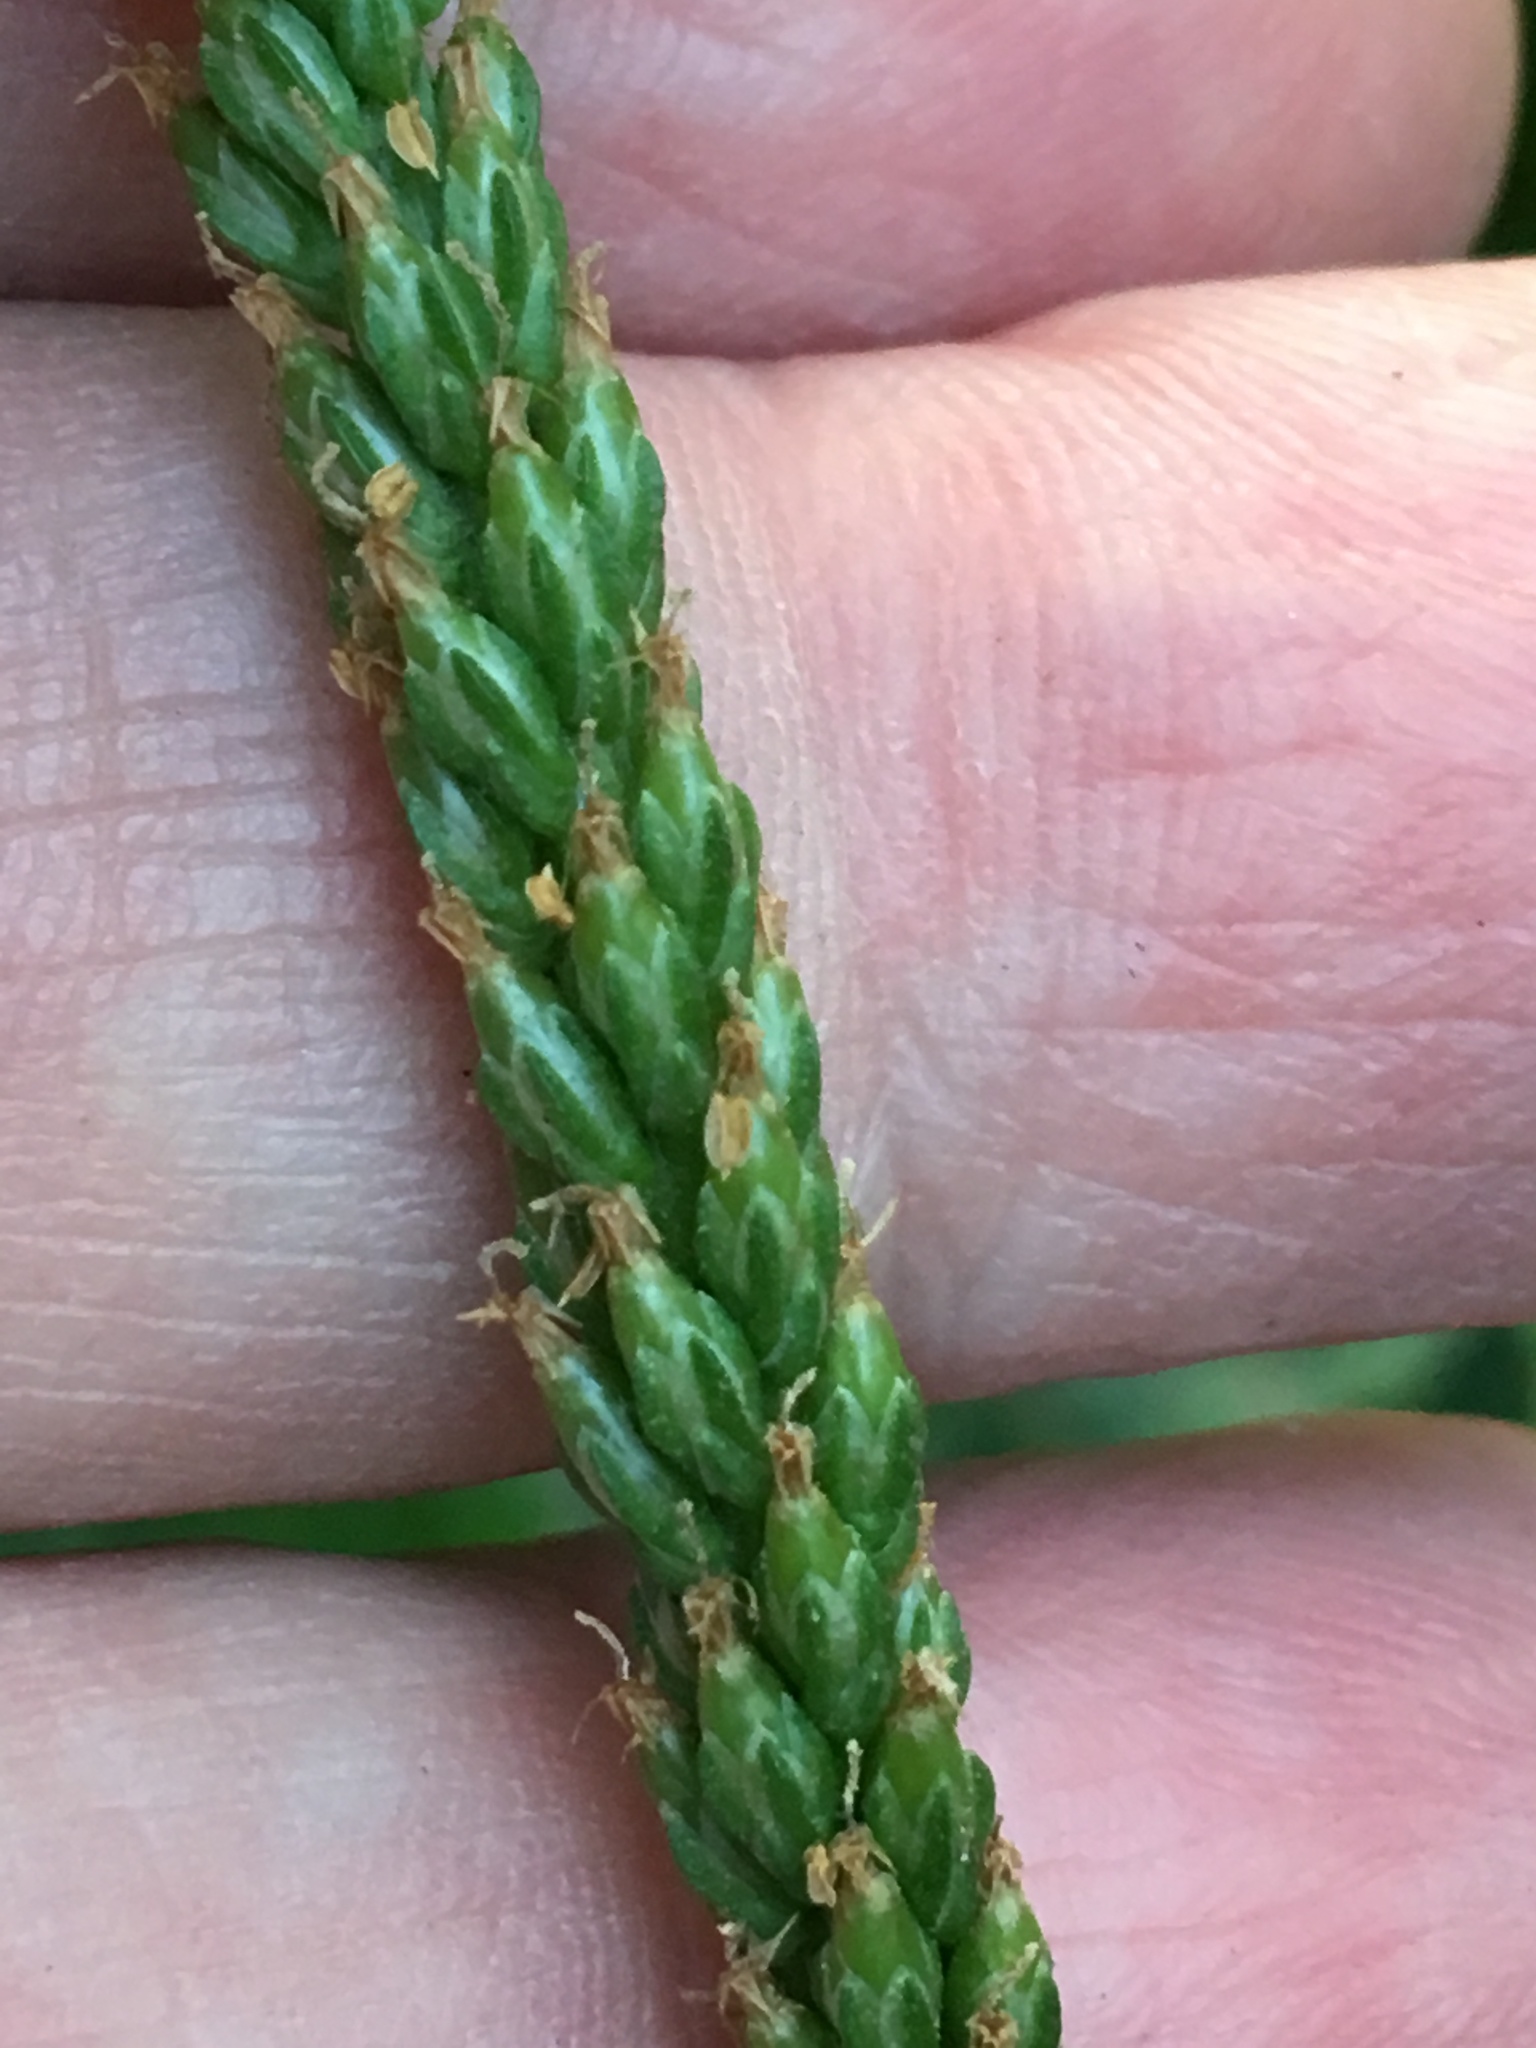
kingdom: Plantae
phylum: Tracheophyta
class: Magnoliopsida
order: Lamiales
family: Plantaginaceae
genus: Plantago
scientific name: Plantago rugelii
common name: American plantain
